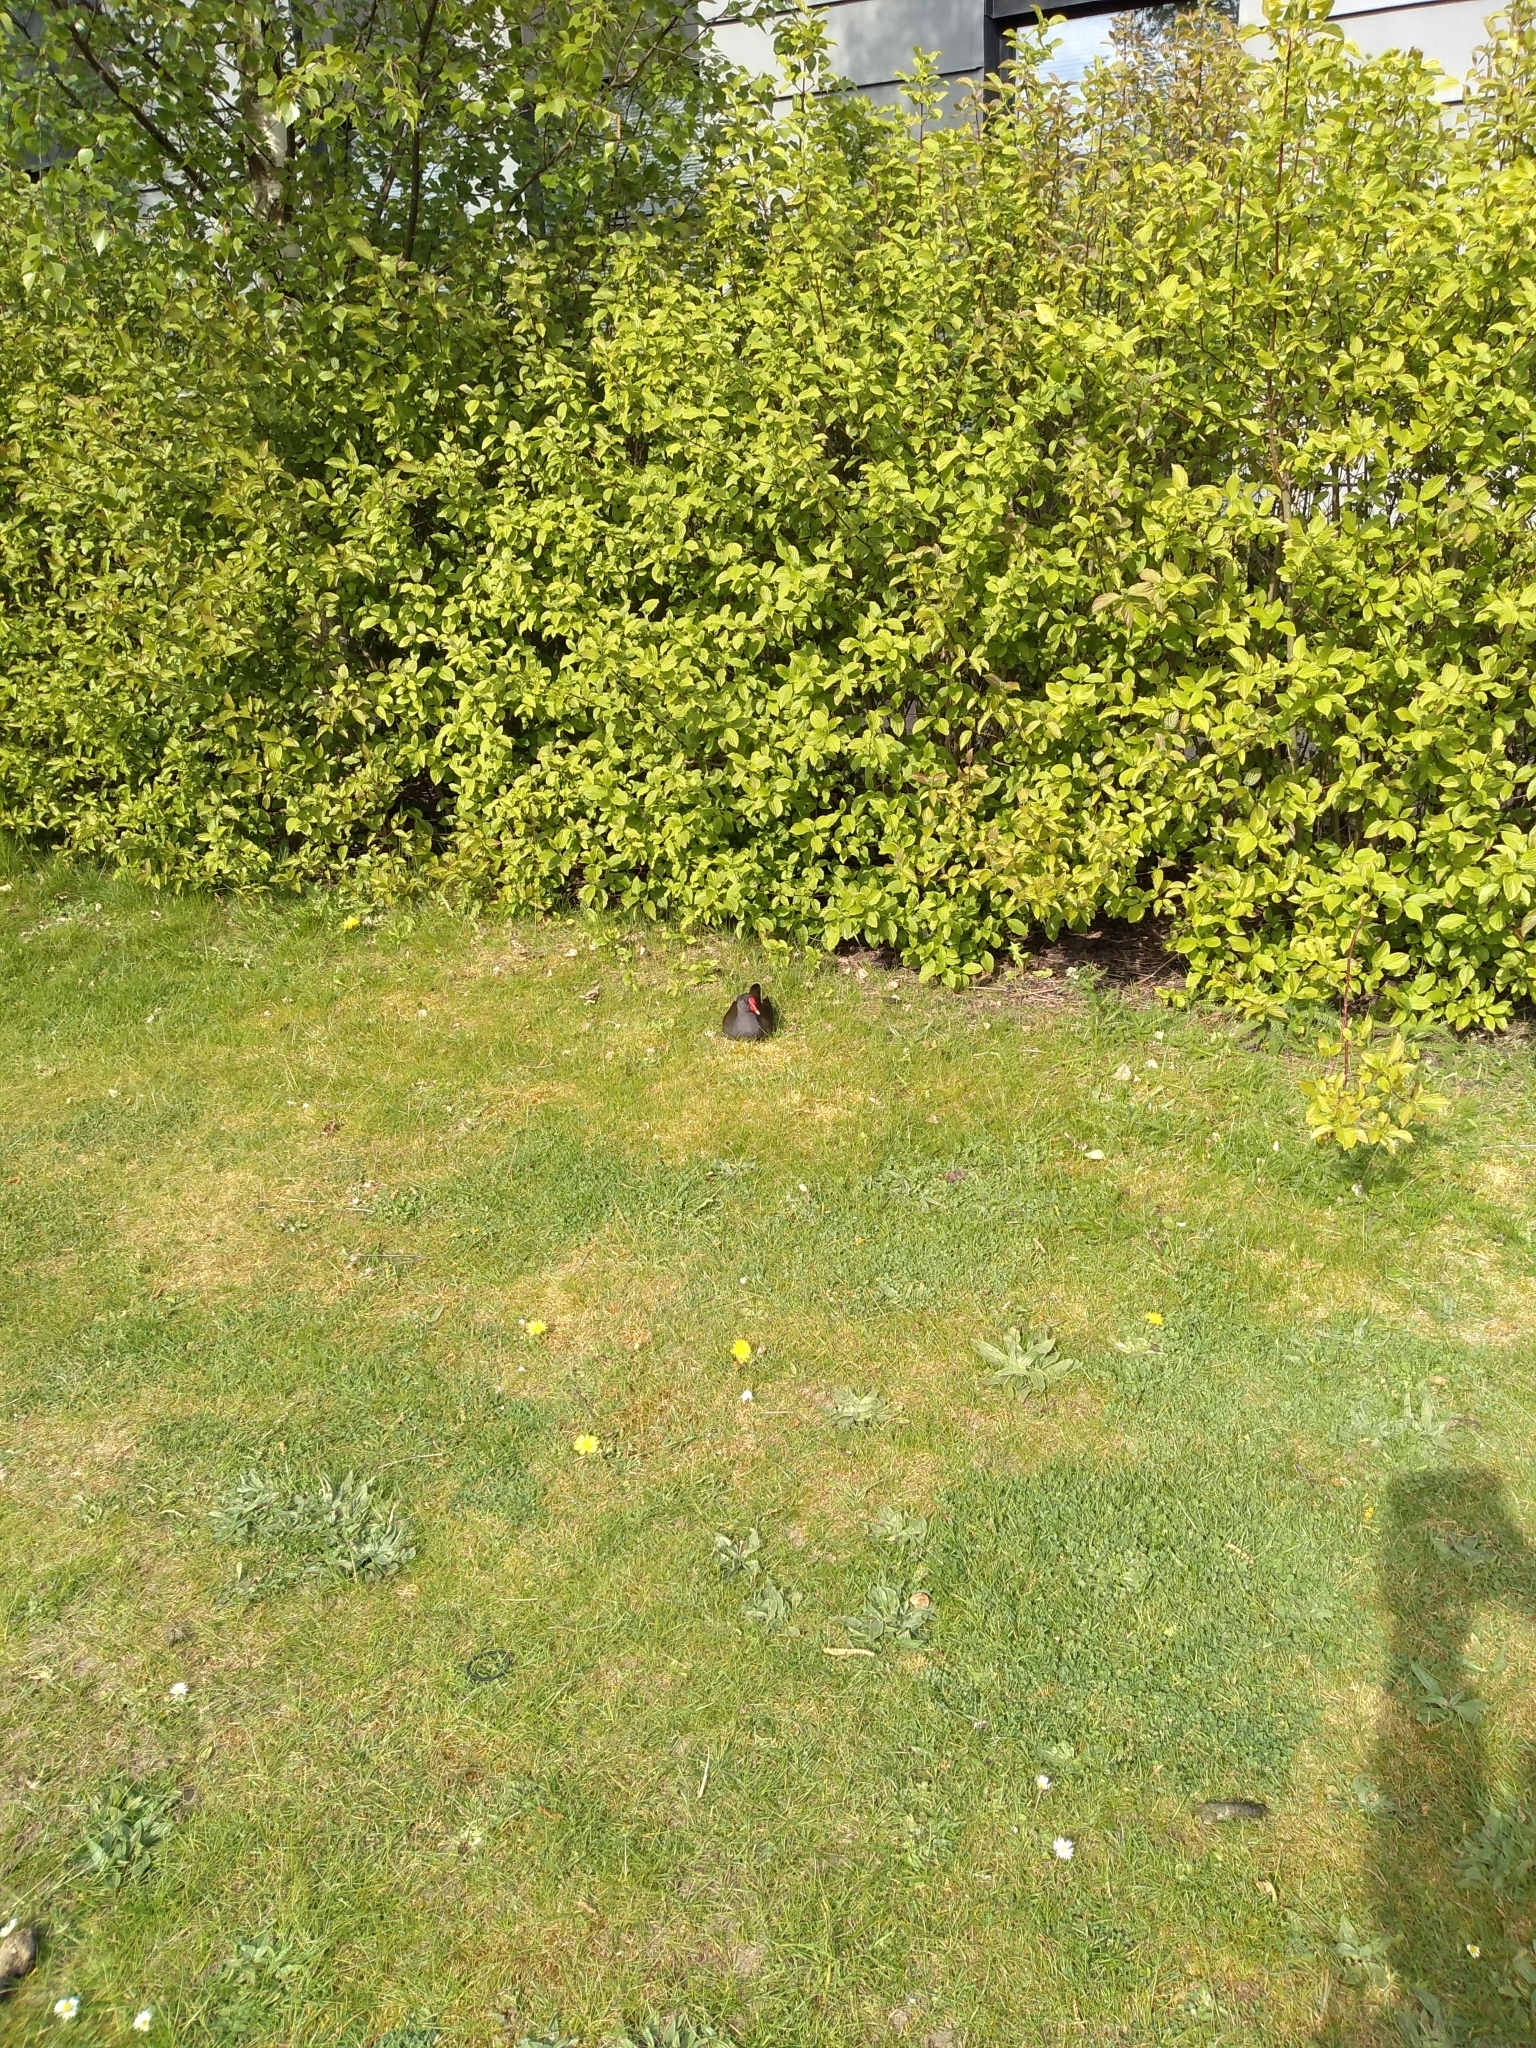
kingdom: Animalia
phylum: Chordata
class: Aves
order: Gruiformes
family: Rallidae
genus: Gallinula
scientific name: Gallinula chloropus
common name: Common moorhen
